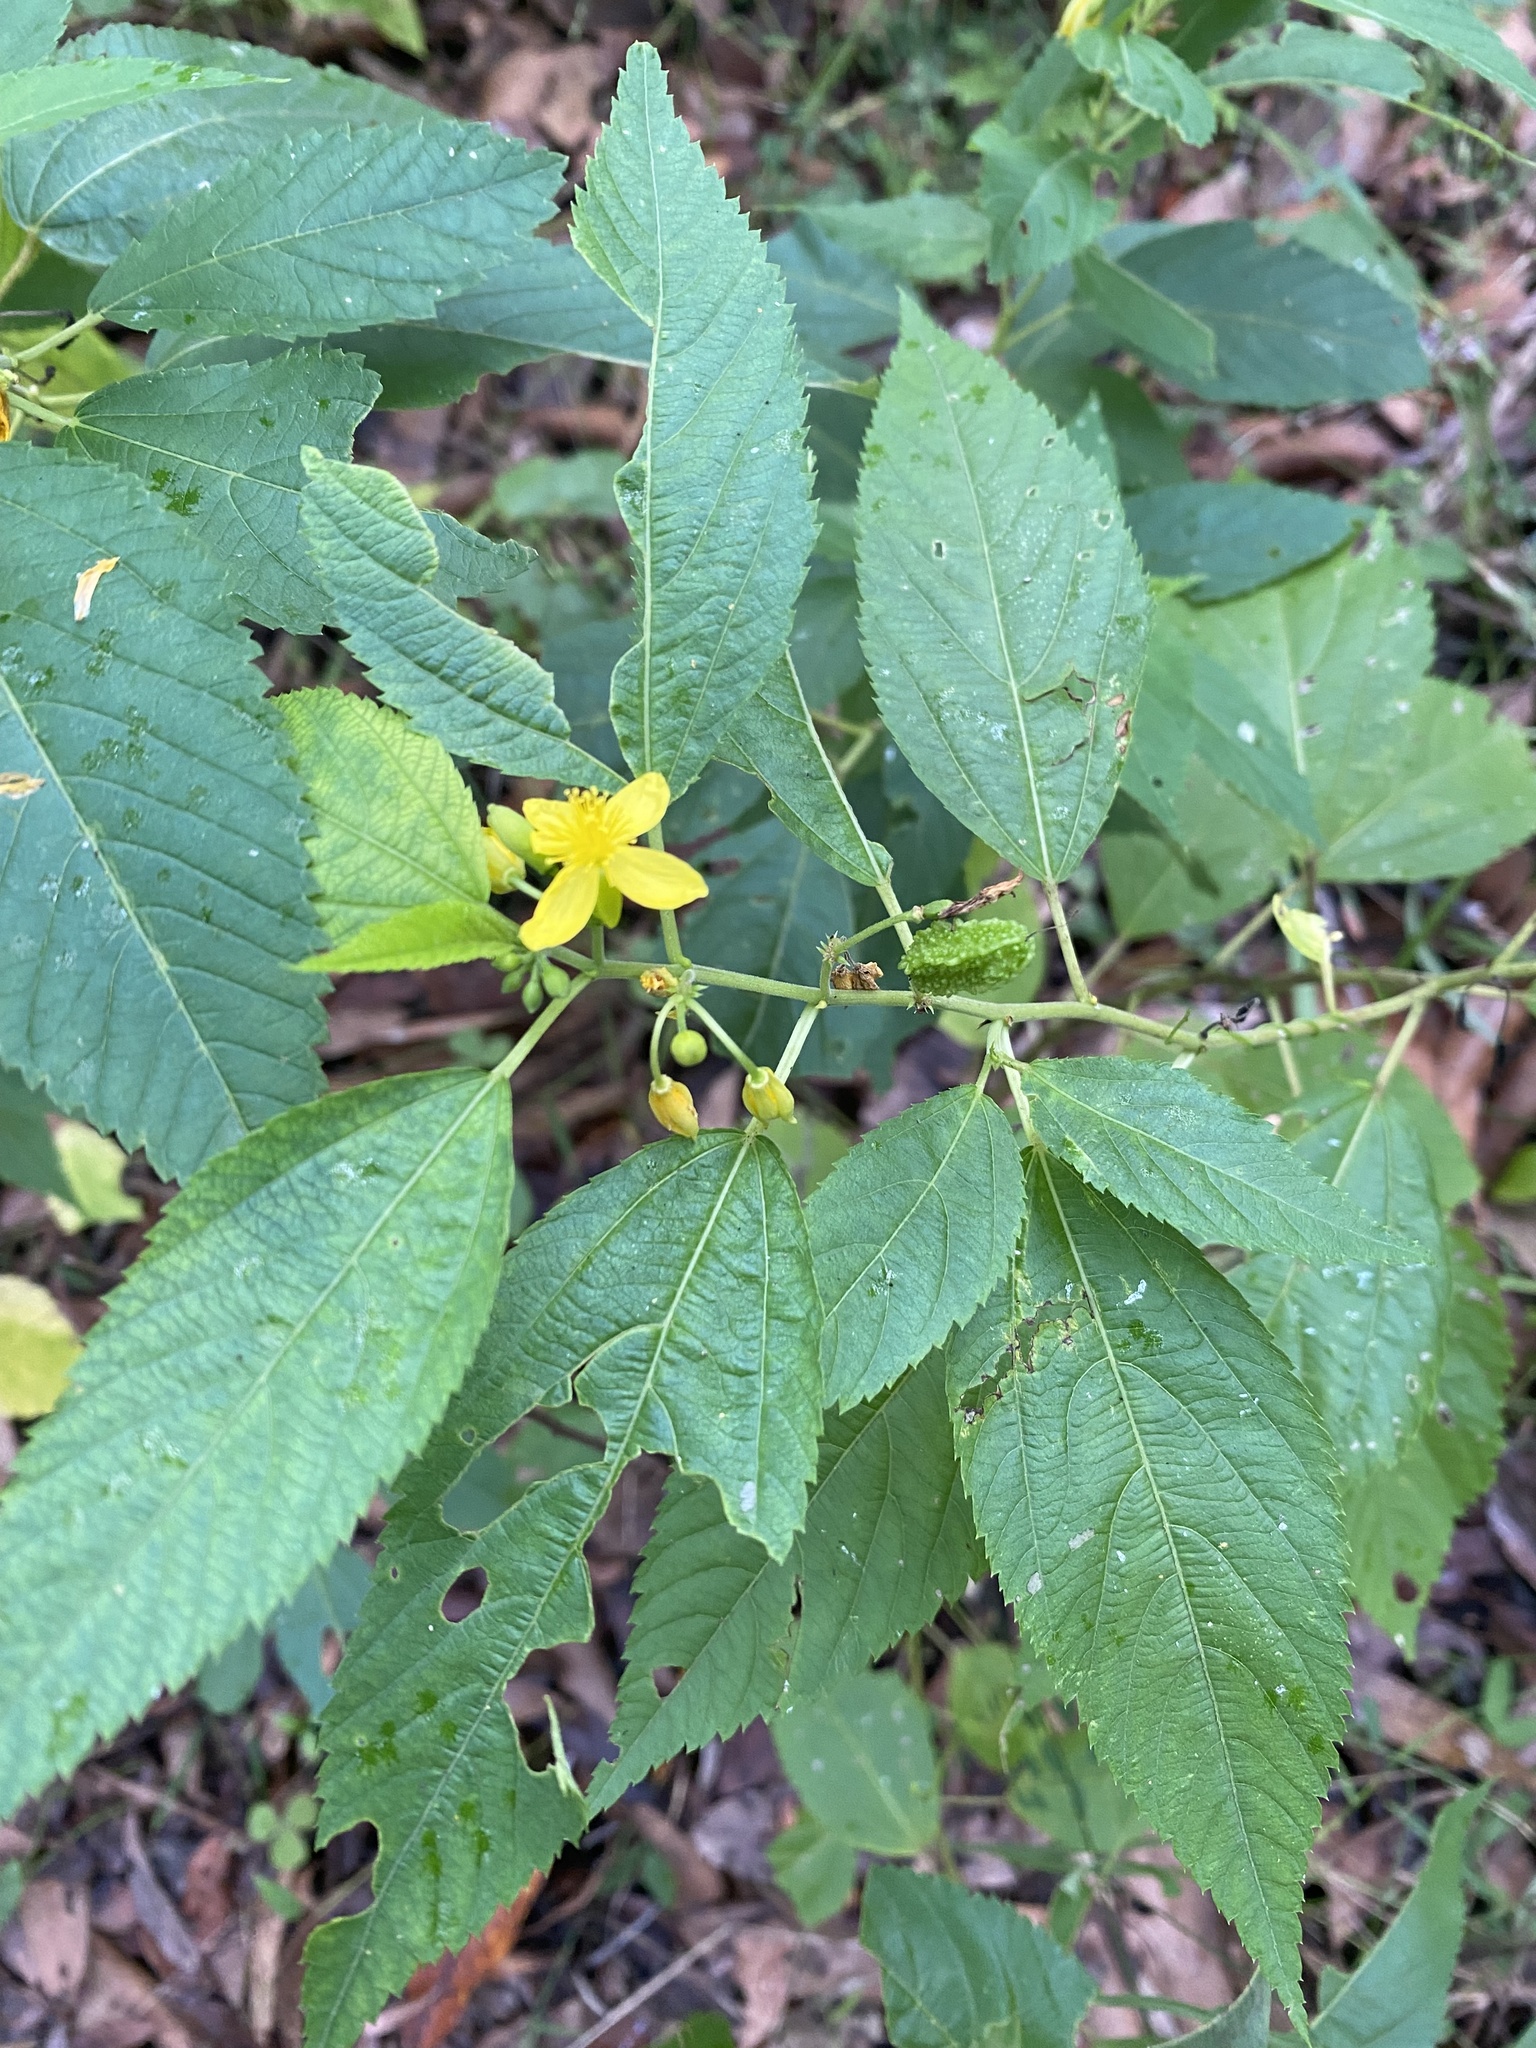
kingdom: Plantae
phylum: Tracheophyta
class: Magnoliopsida
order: Malvales
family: Malvaceae
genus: Corchorus
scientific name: Corchorus reynoldsiae
